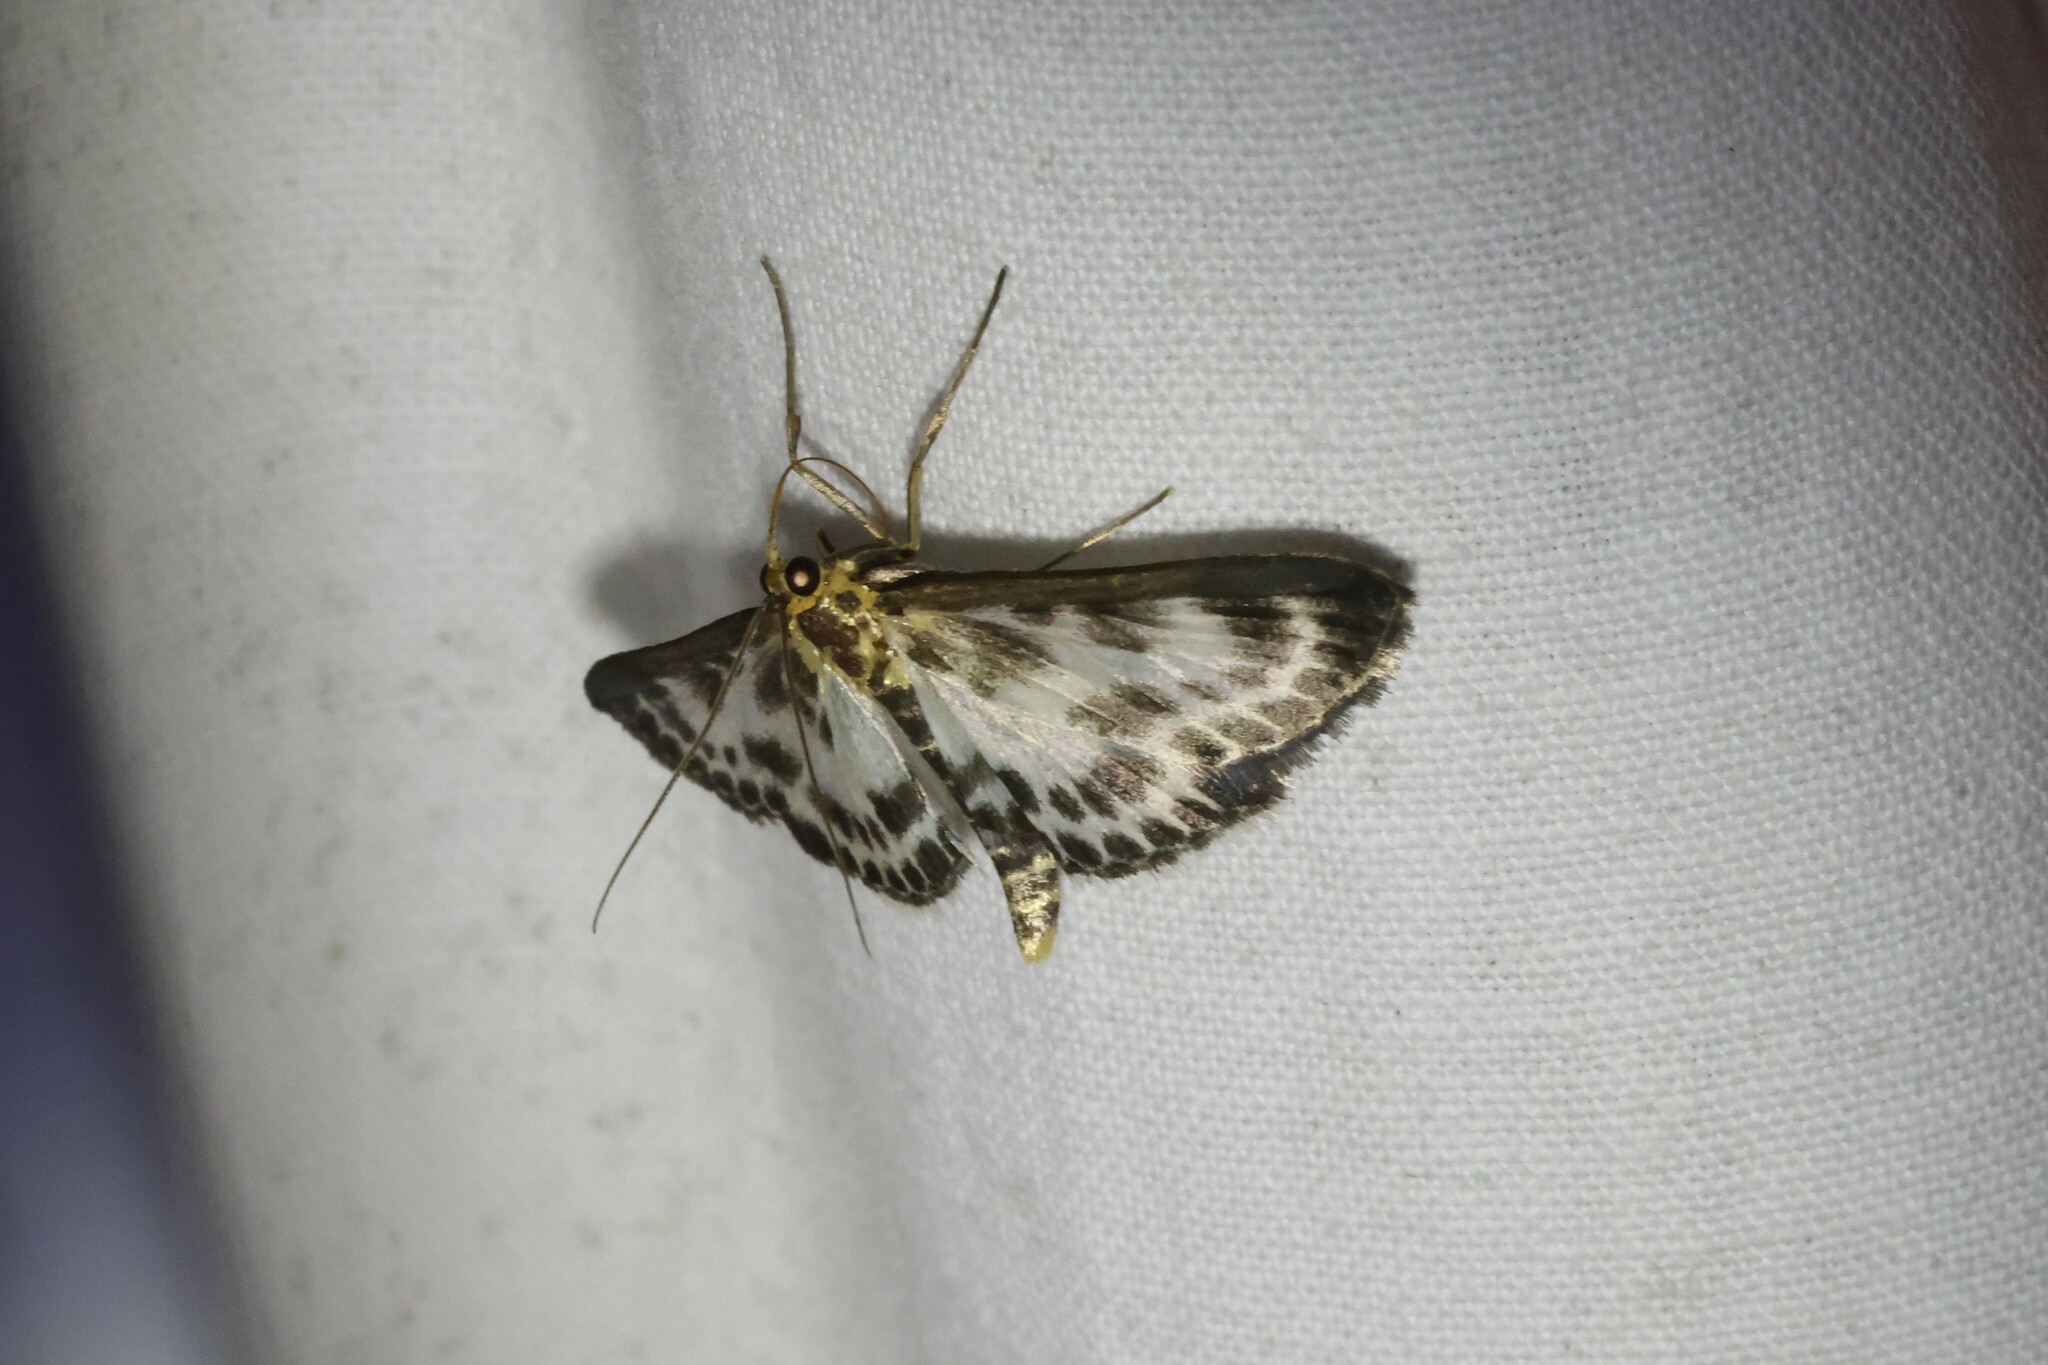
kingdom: Animalia
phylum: Arthropoda
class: Insecta
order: Lepidoptera
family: Crambidae
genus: Anania
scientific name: Anania hortulata
